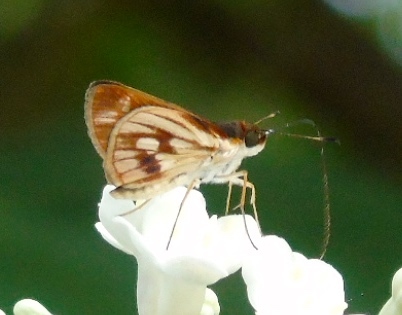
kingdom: Animalia
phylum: Arthropoda
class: Insecta
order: Lepidoptera
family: Hesperiidae
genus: Troyus
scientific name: Troyus fantasos
